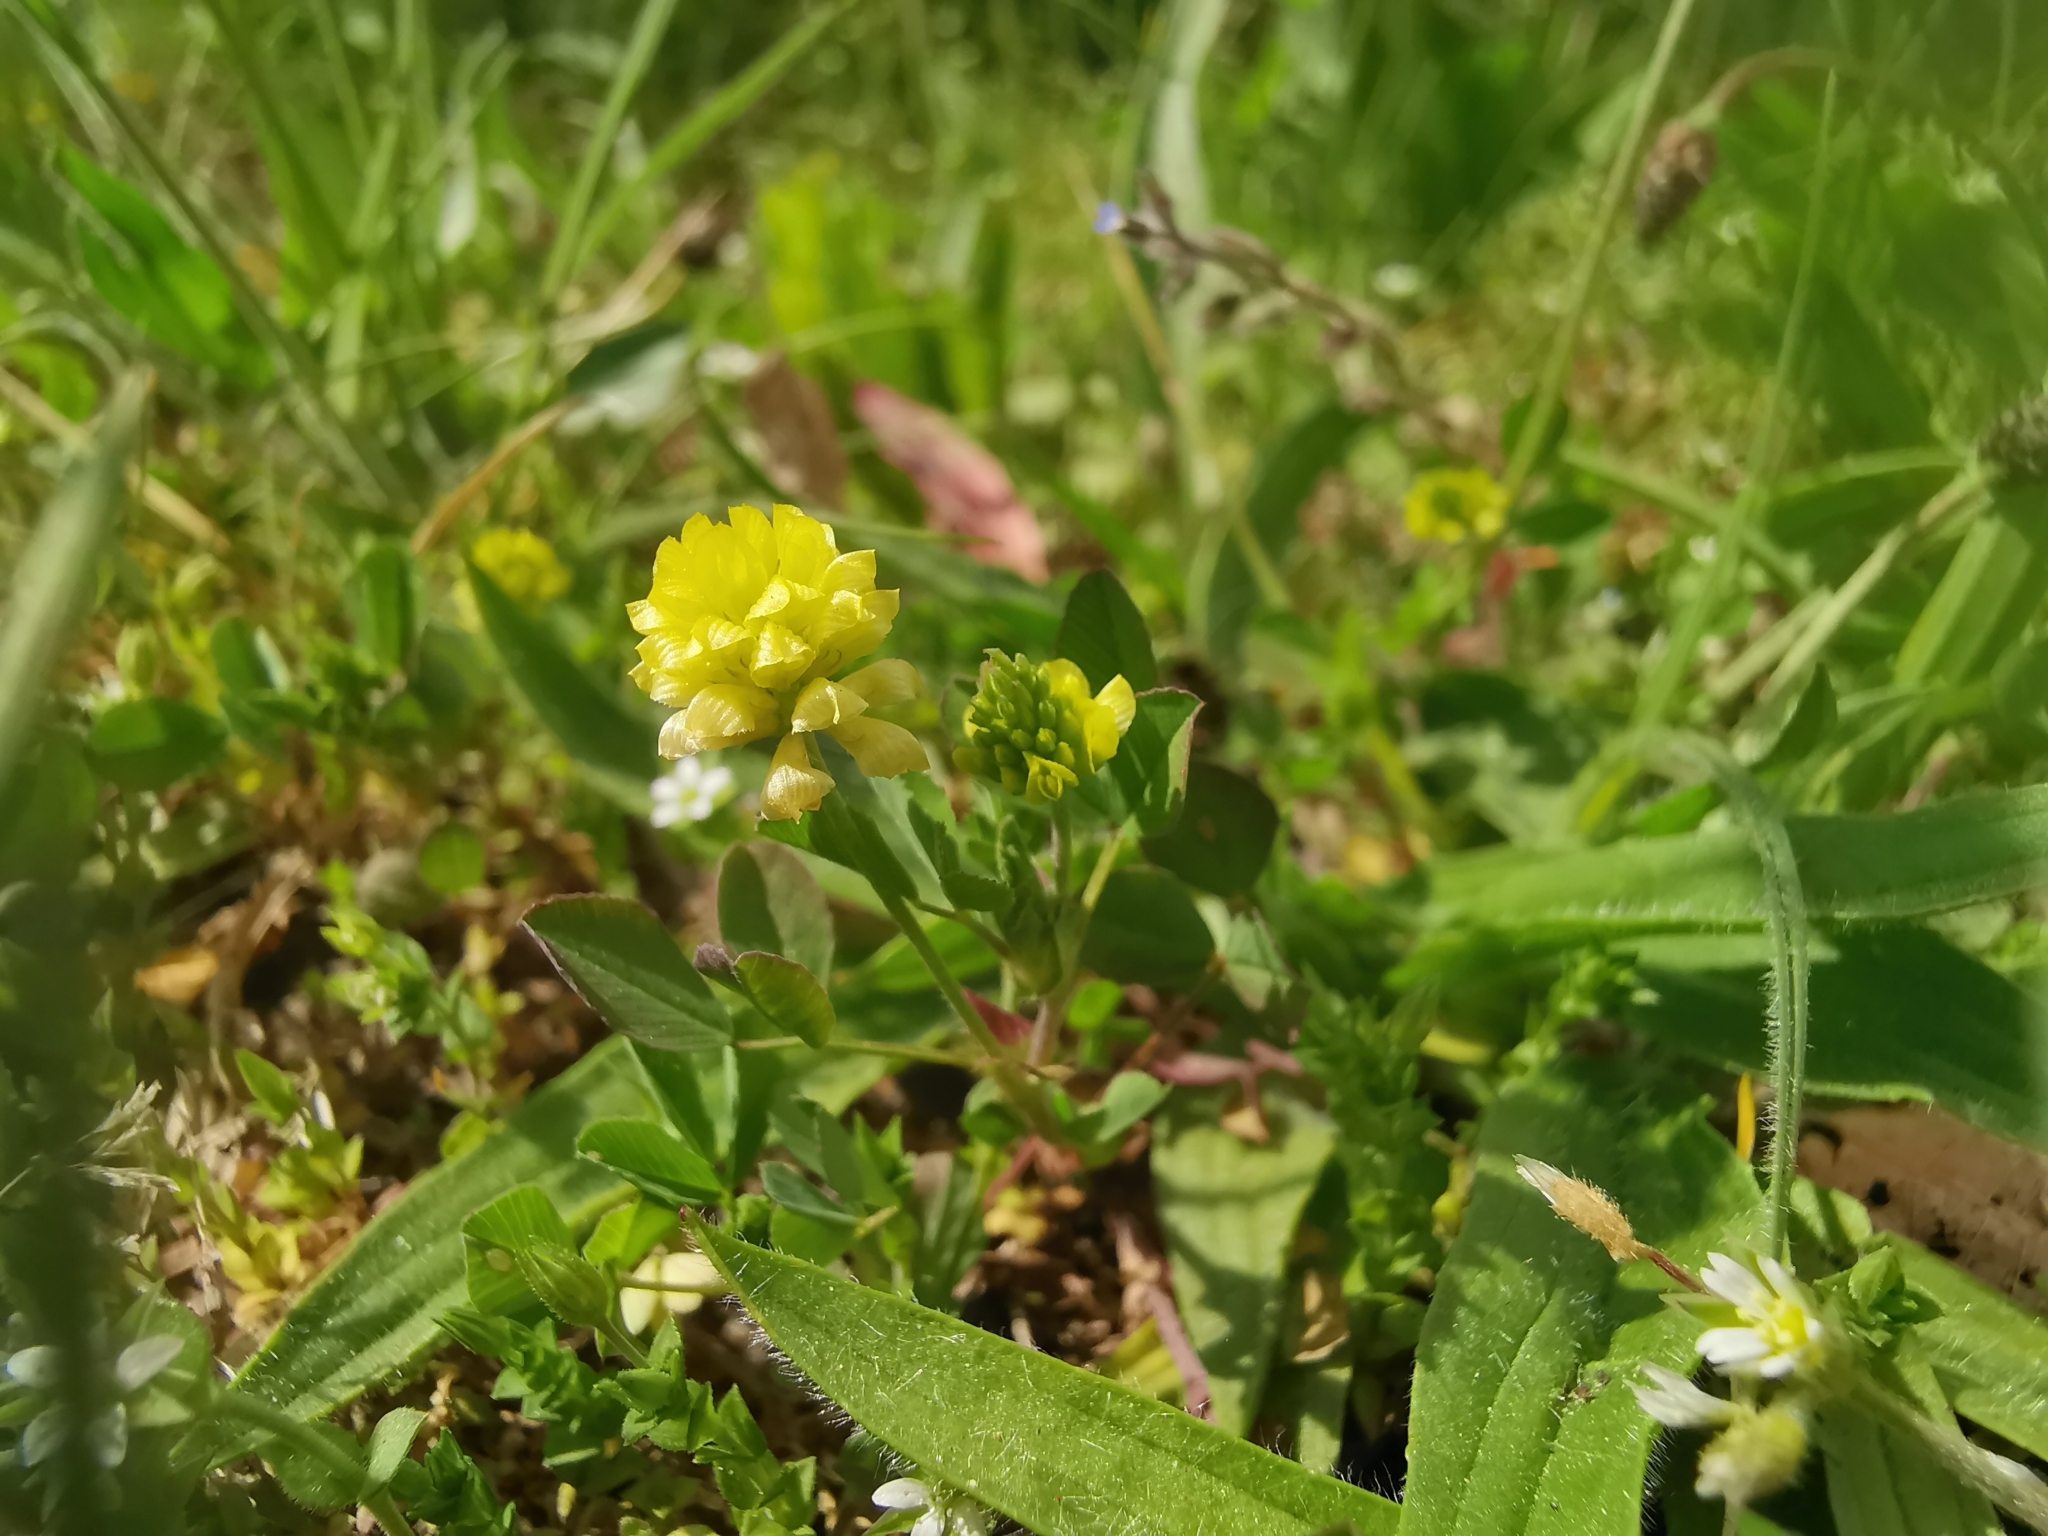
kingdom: Plantae
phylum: Tracheophyta
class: Magnoliopsida
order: Fabales
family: Fabaceae
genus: Trifolium
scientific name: Trifolium campestre
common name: Field clover
